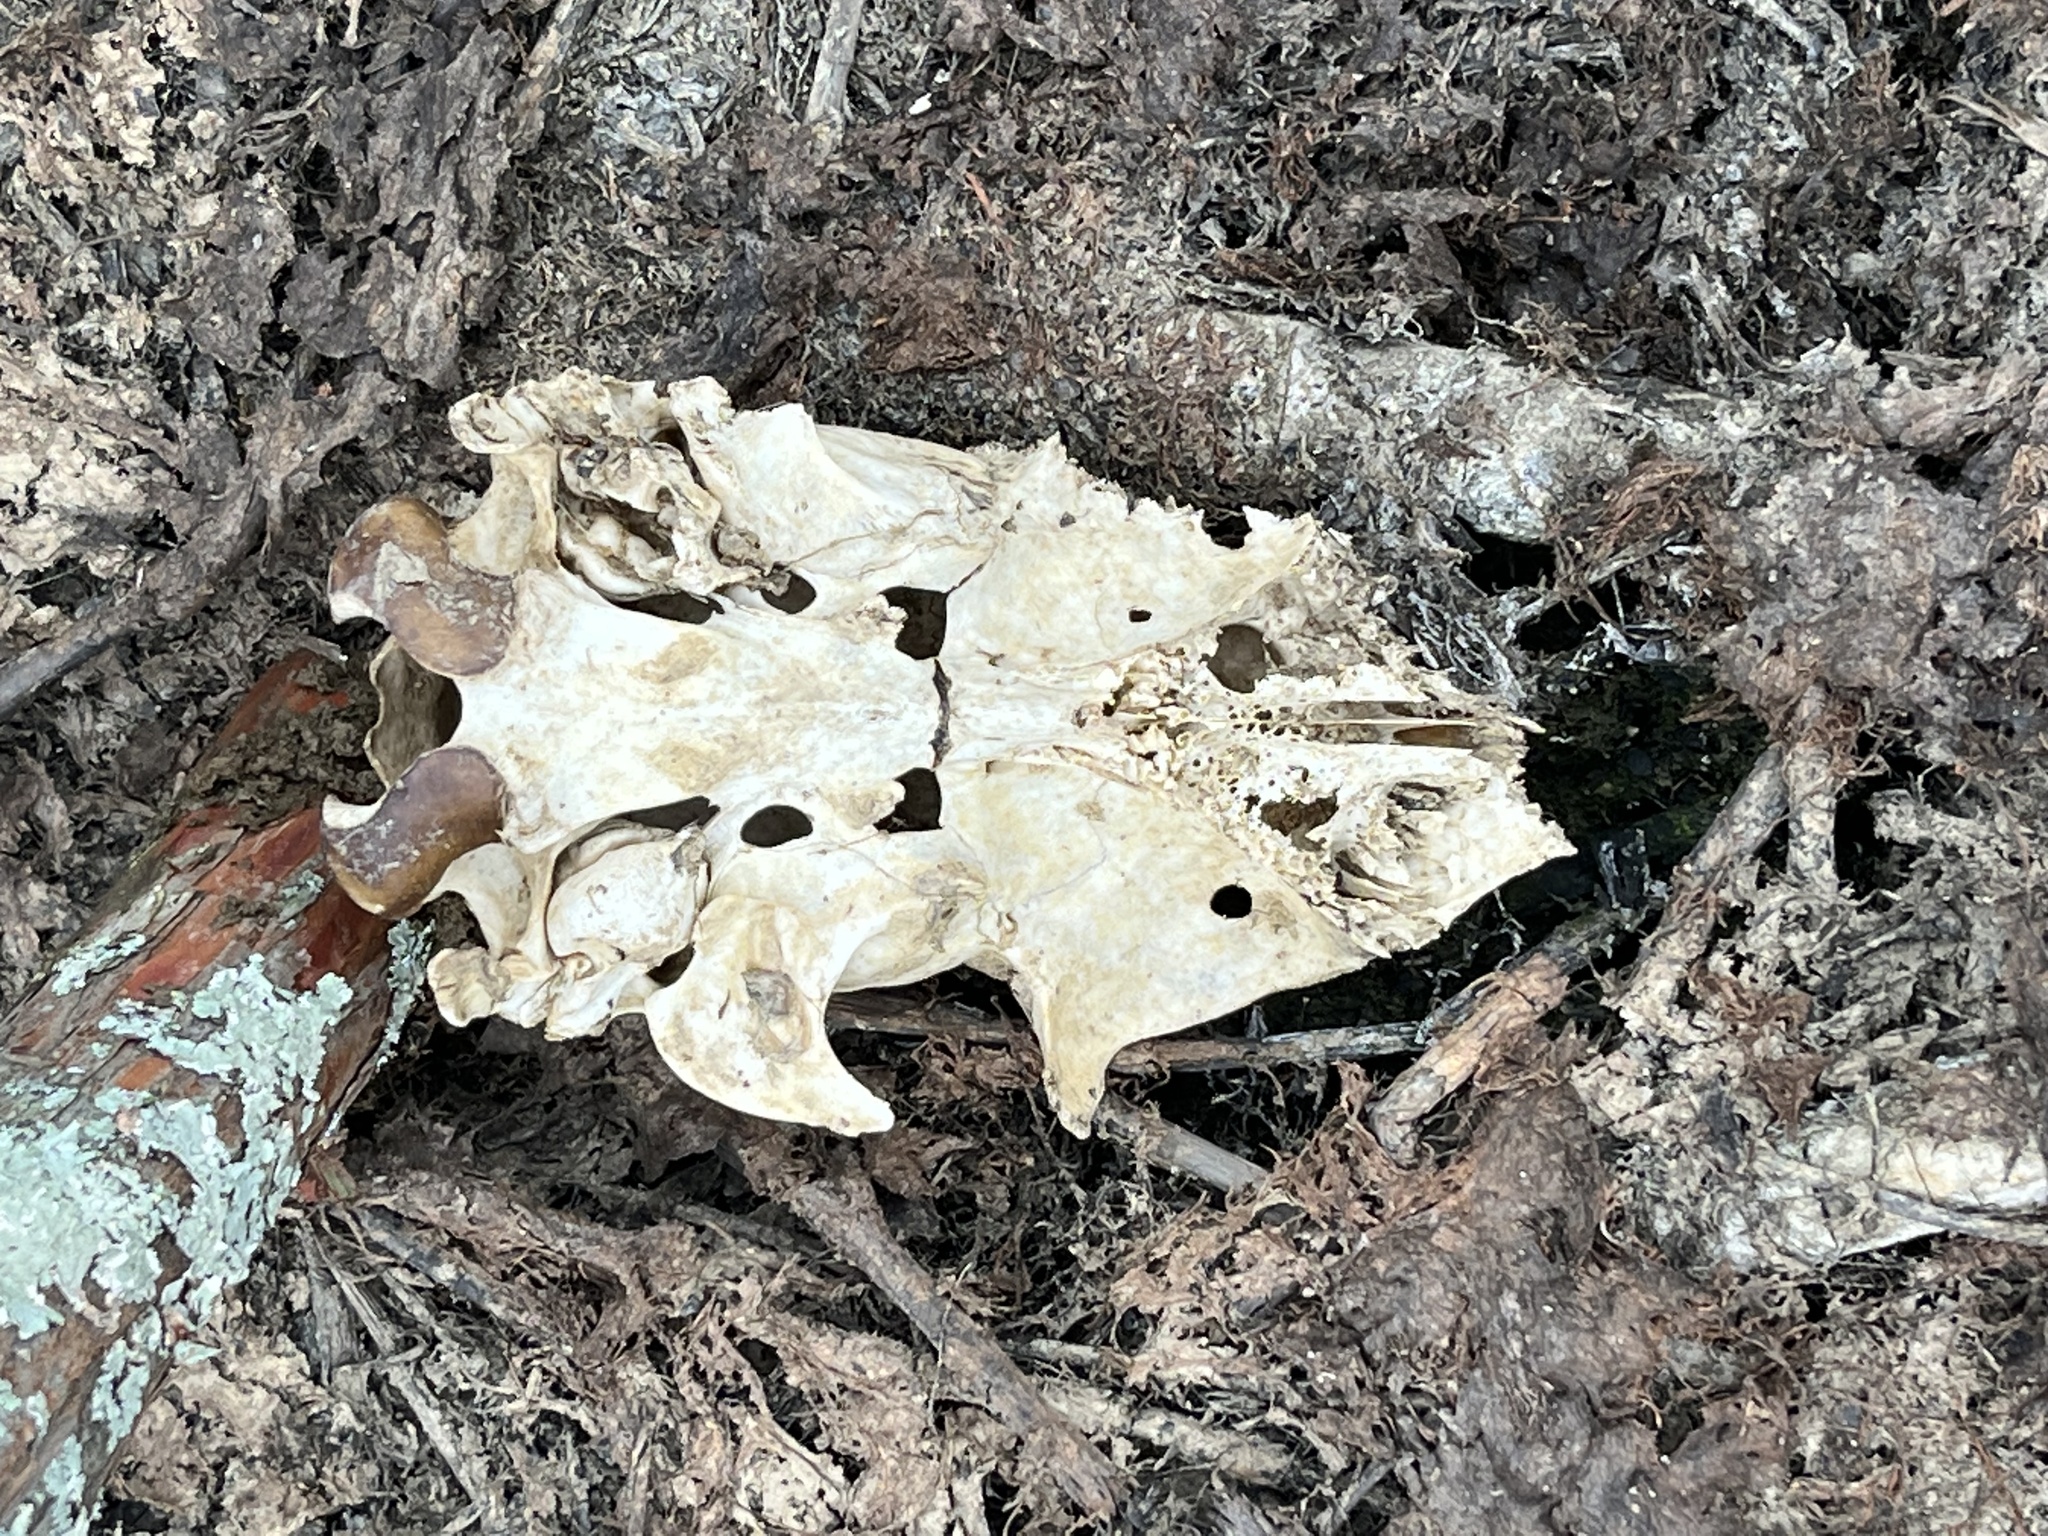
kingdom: Animalia
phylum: Chordata
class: Mammalia
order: Artiodactyla
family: Cervidae
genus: Odocoileus
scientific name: Odocoileus virginianus
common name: White-tailed deer
